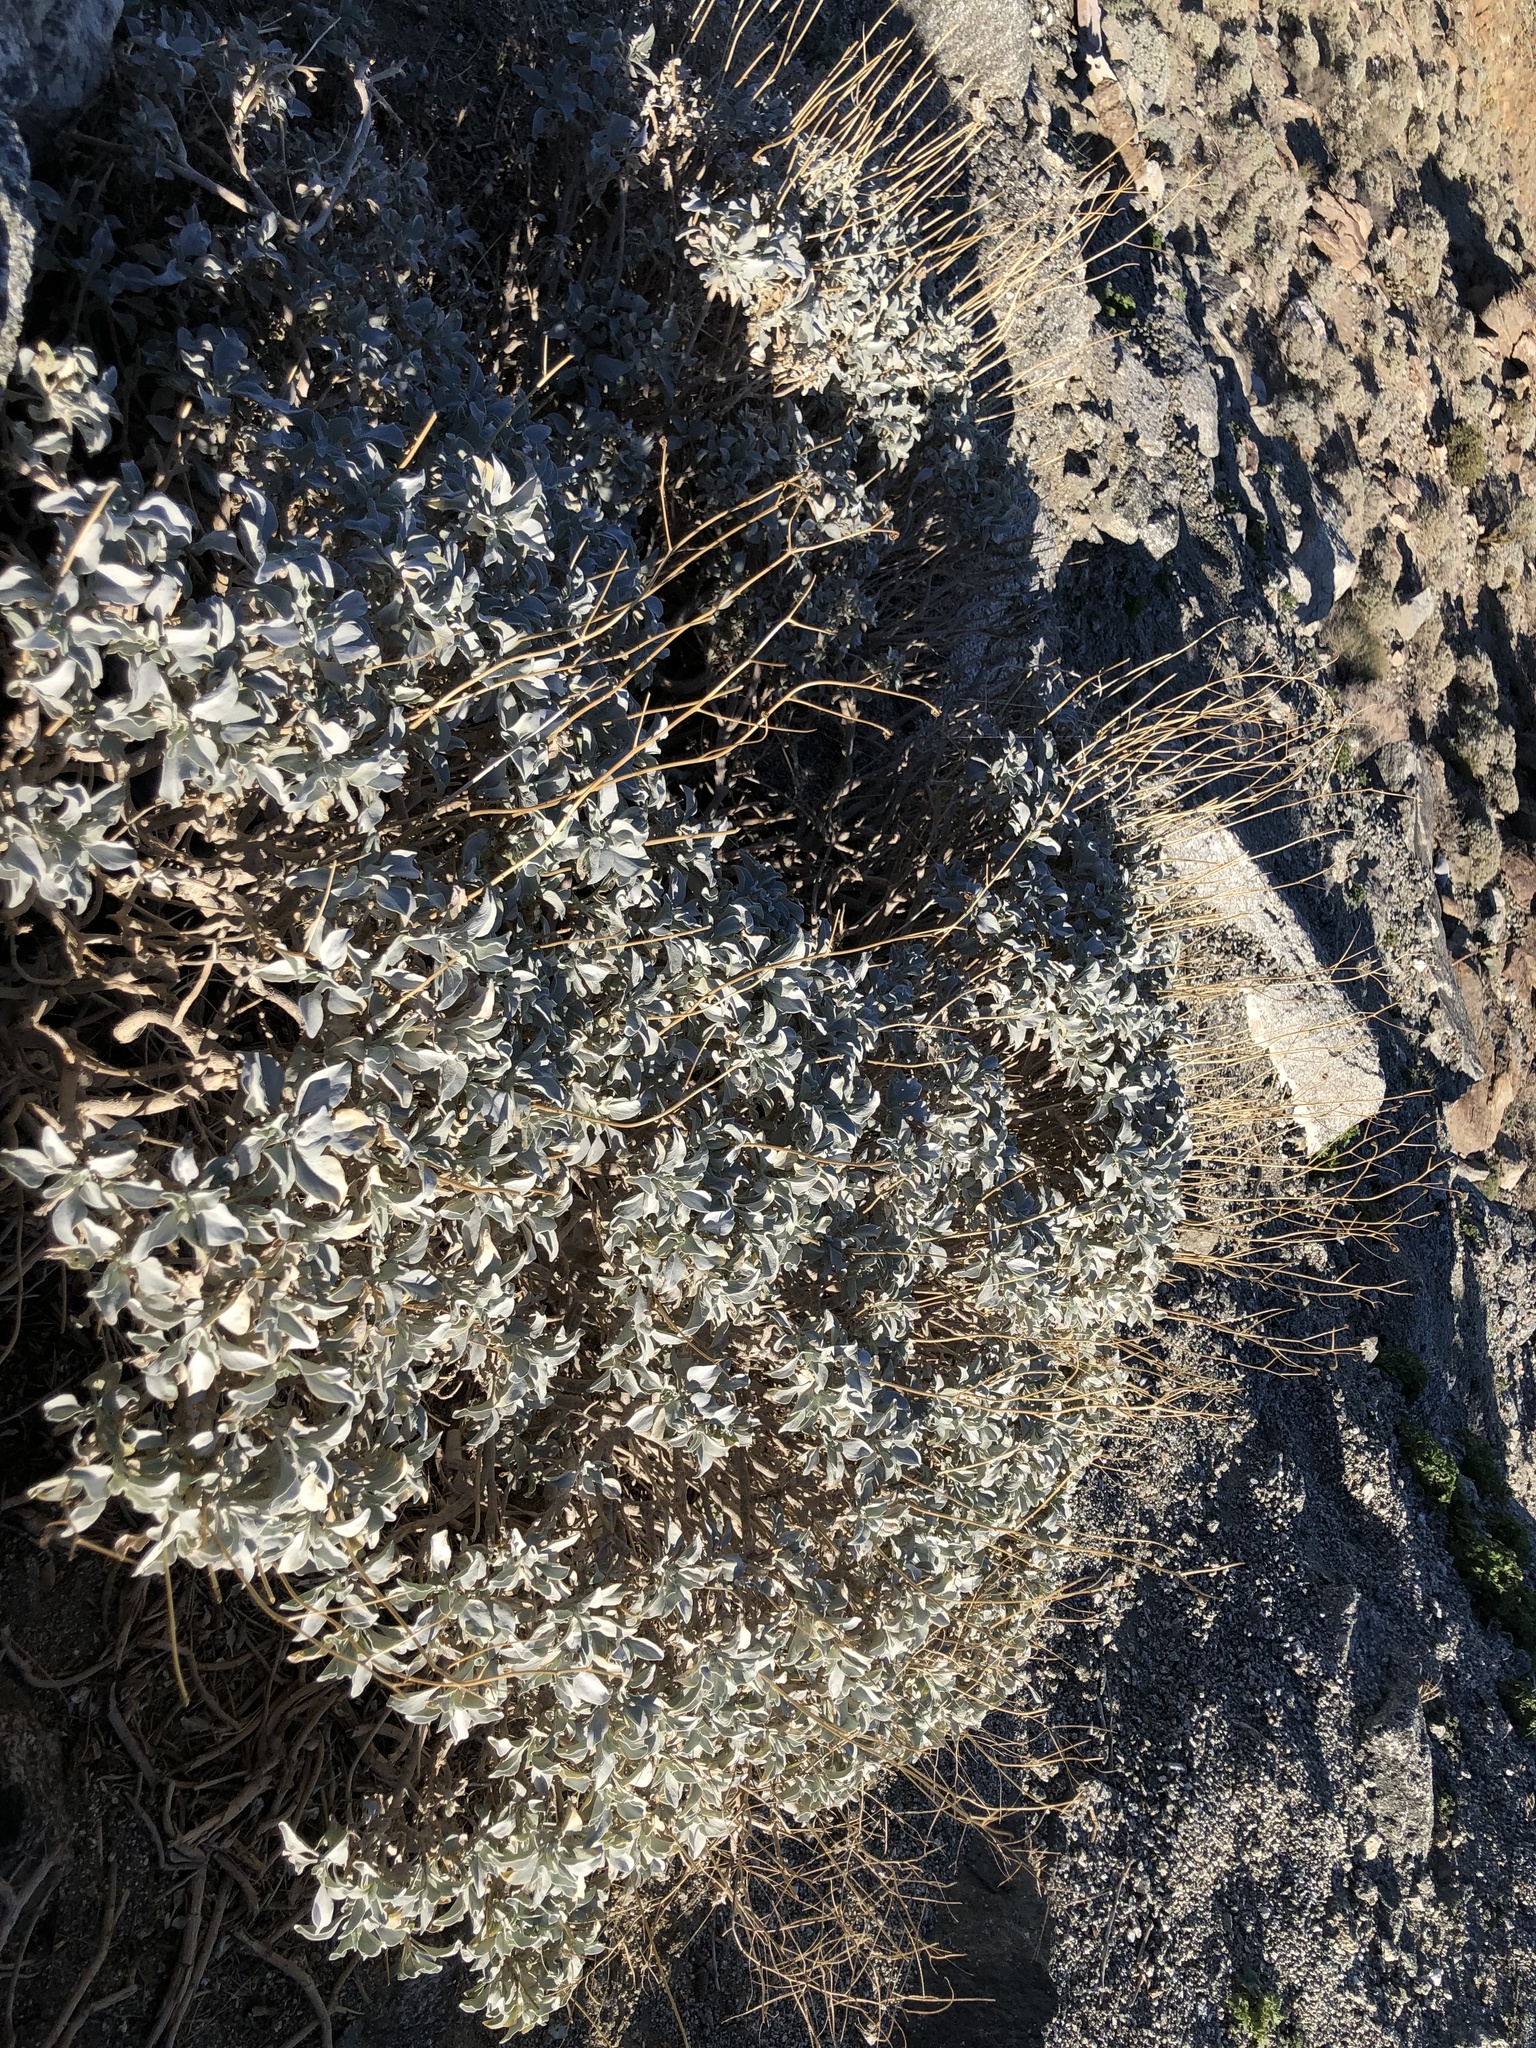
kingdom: Plantae
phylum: Tracheophyta
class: Magnoliopsida
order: Asterales
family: Asteraceae
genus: Encelia
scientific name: Encelia farinosa
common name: Brittlebush
